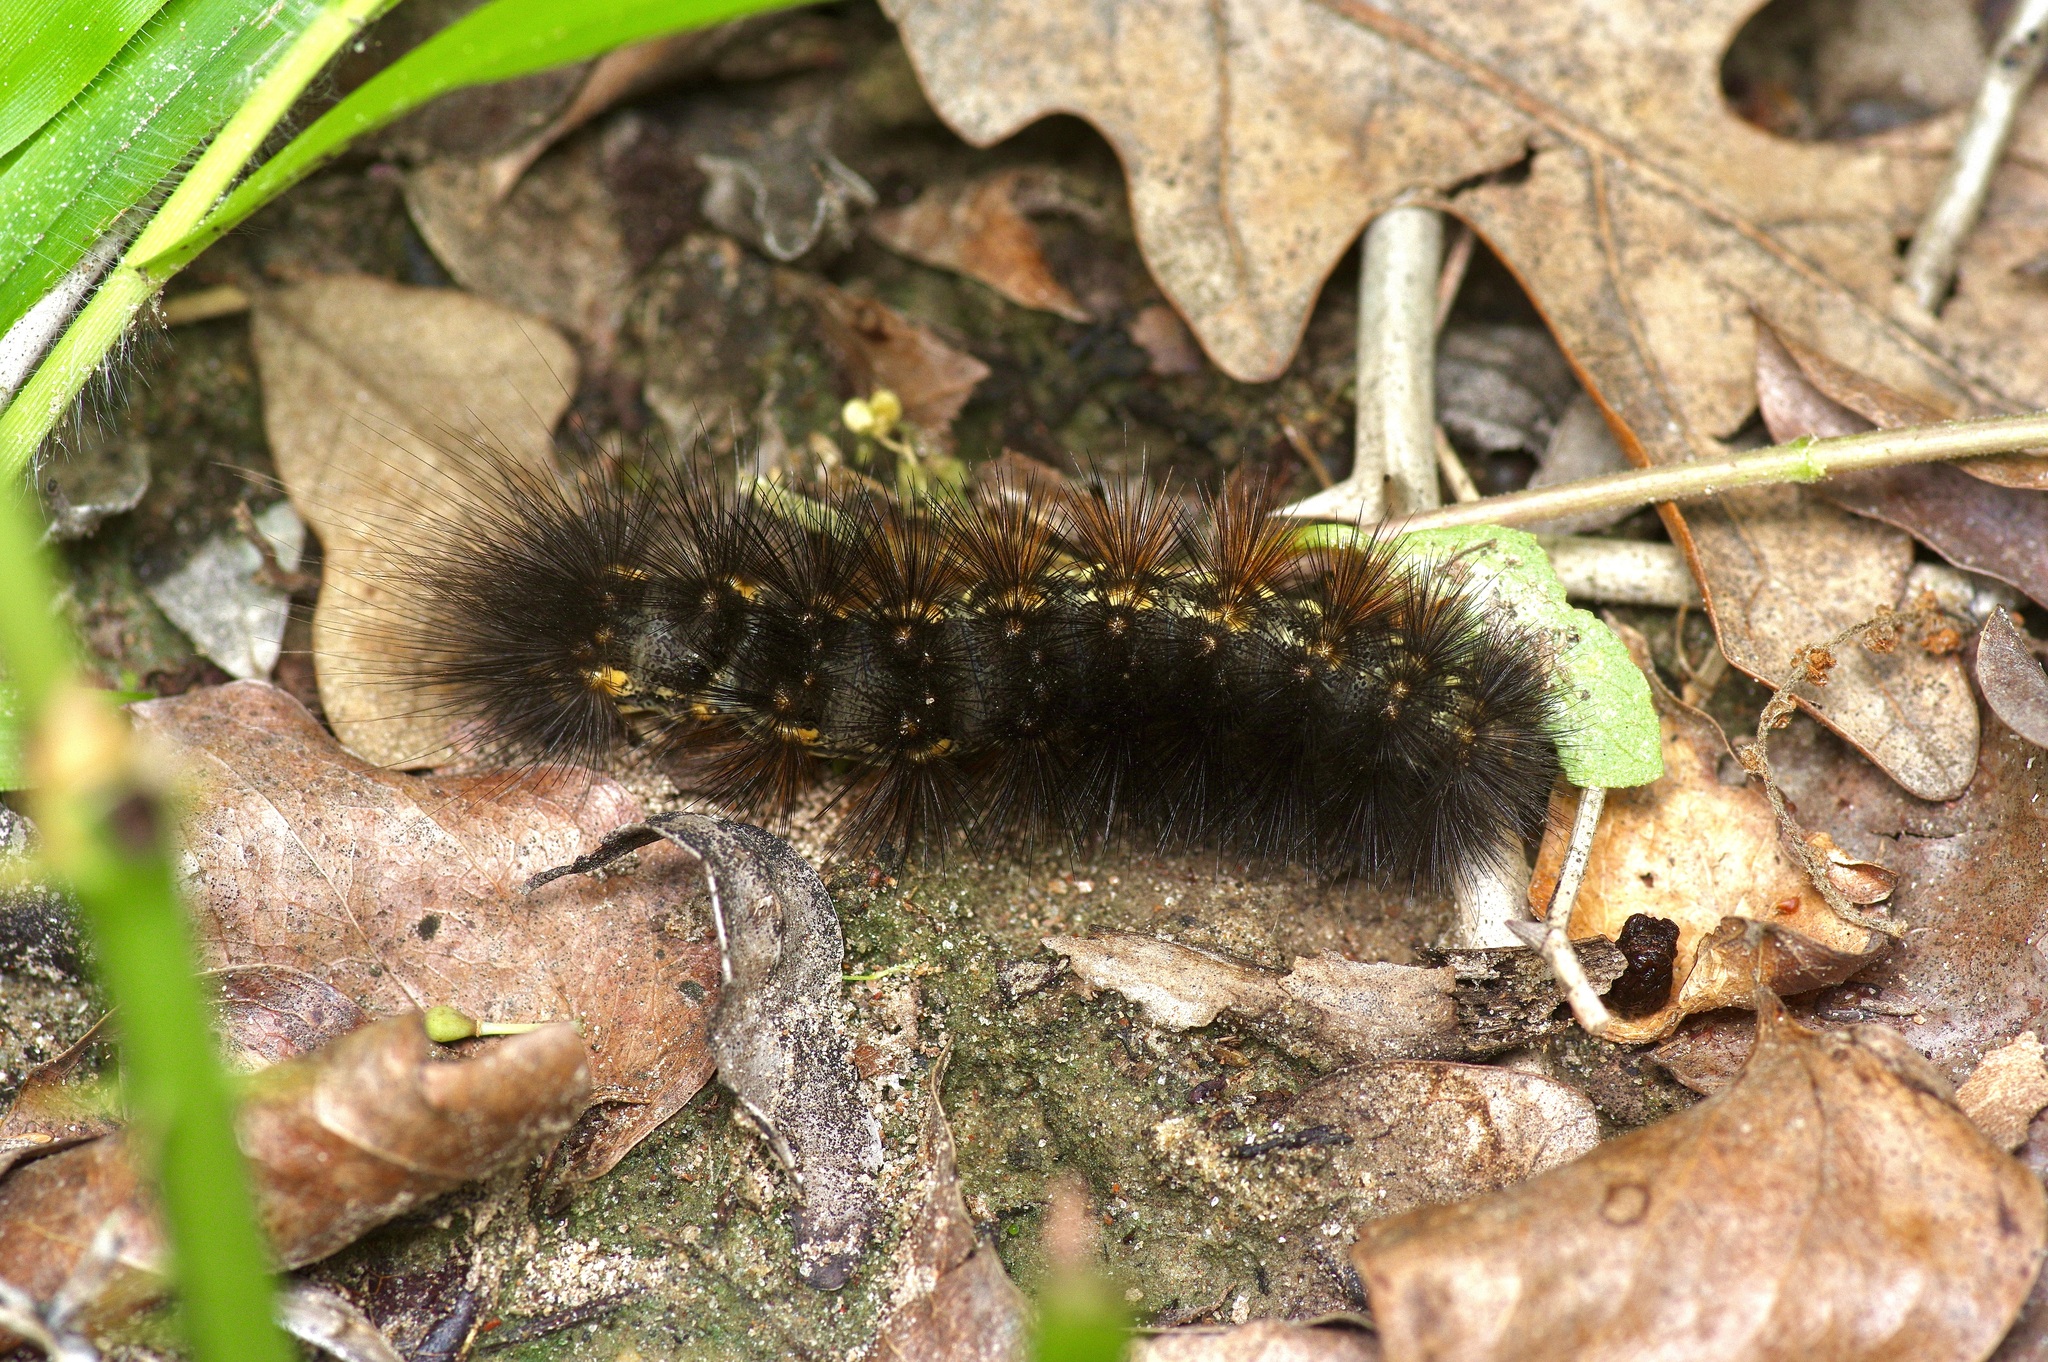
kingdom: Animalia
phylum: Arthropoda
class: Insecta
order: Lepidoptera
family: Erebidae
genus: Estigmene
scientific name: Estigmene acrea
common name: Salt marsh moth
